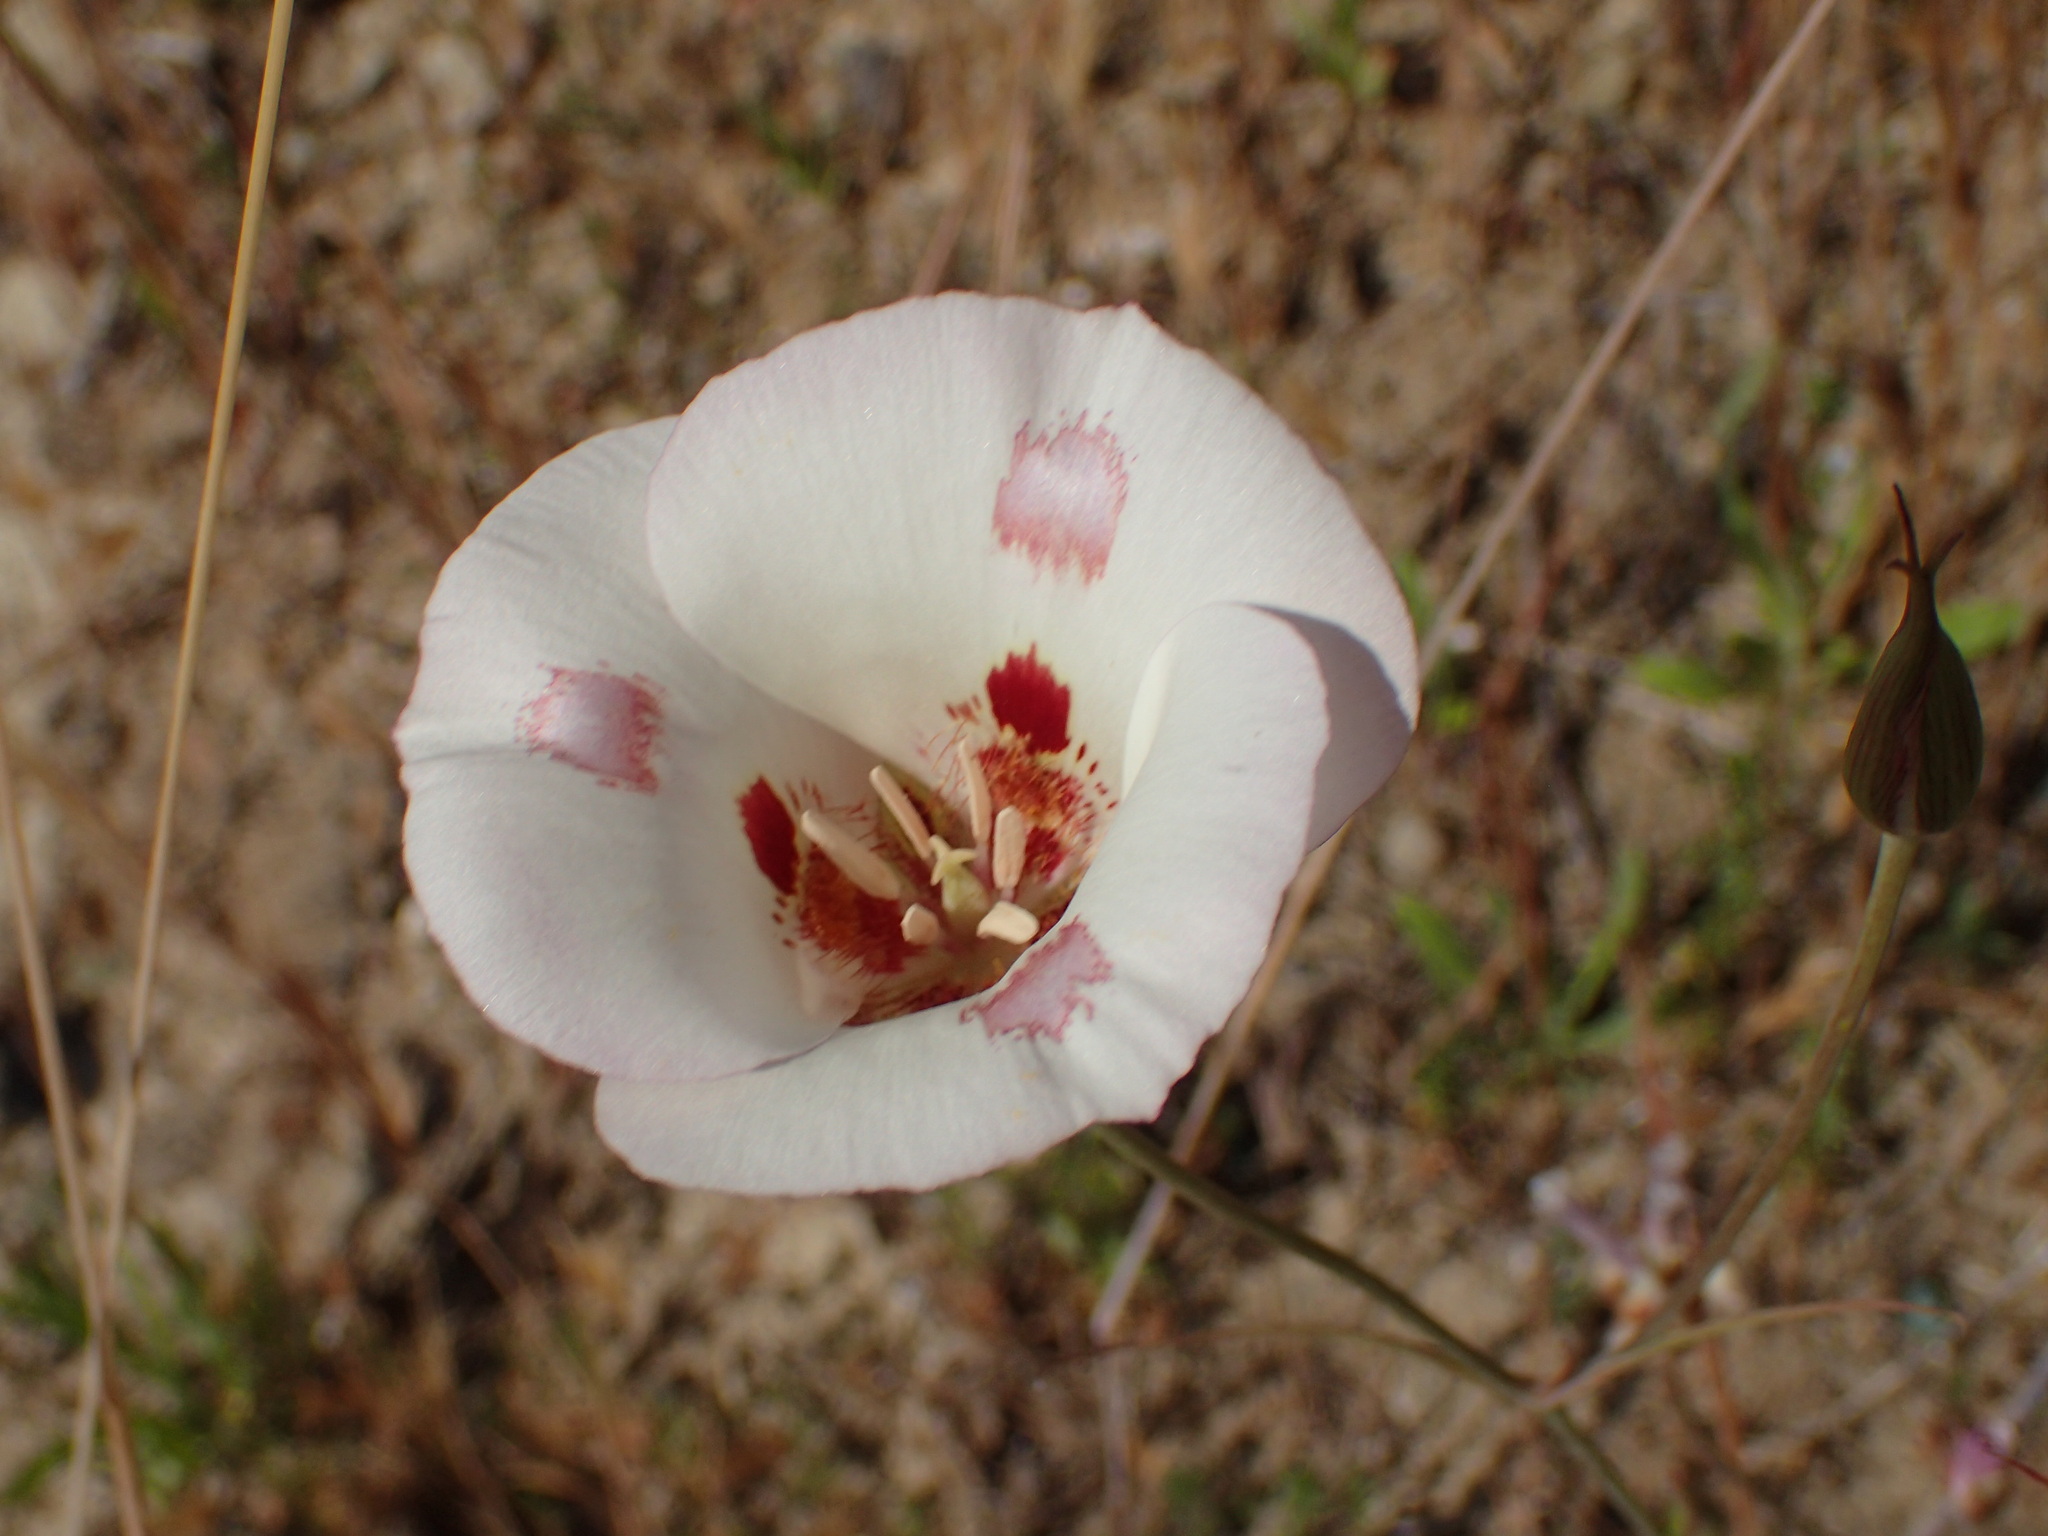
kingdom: Plantae
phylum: Tracheophyta
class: Liliopsida
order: Liliales
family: Liliaceae
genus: Calochortus
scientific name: Calochortus venustus
